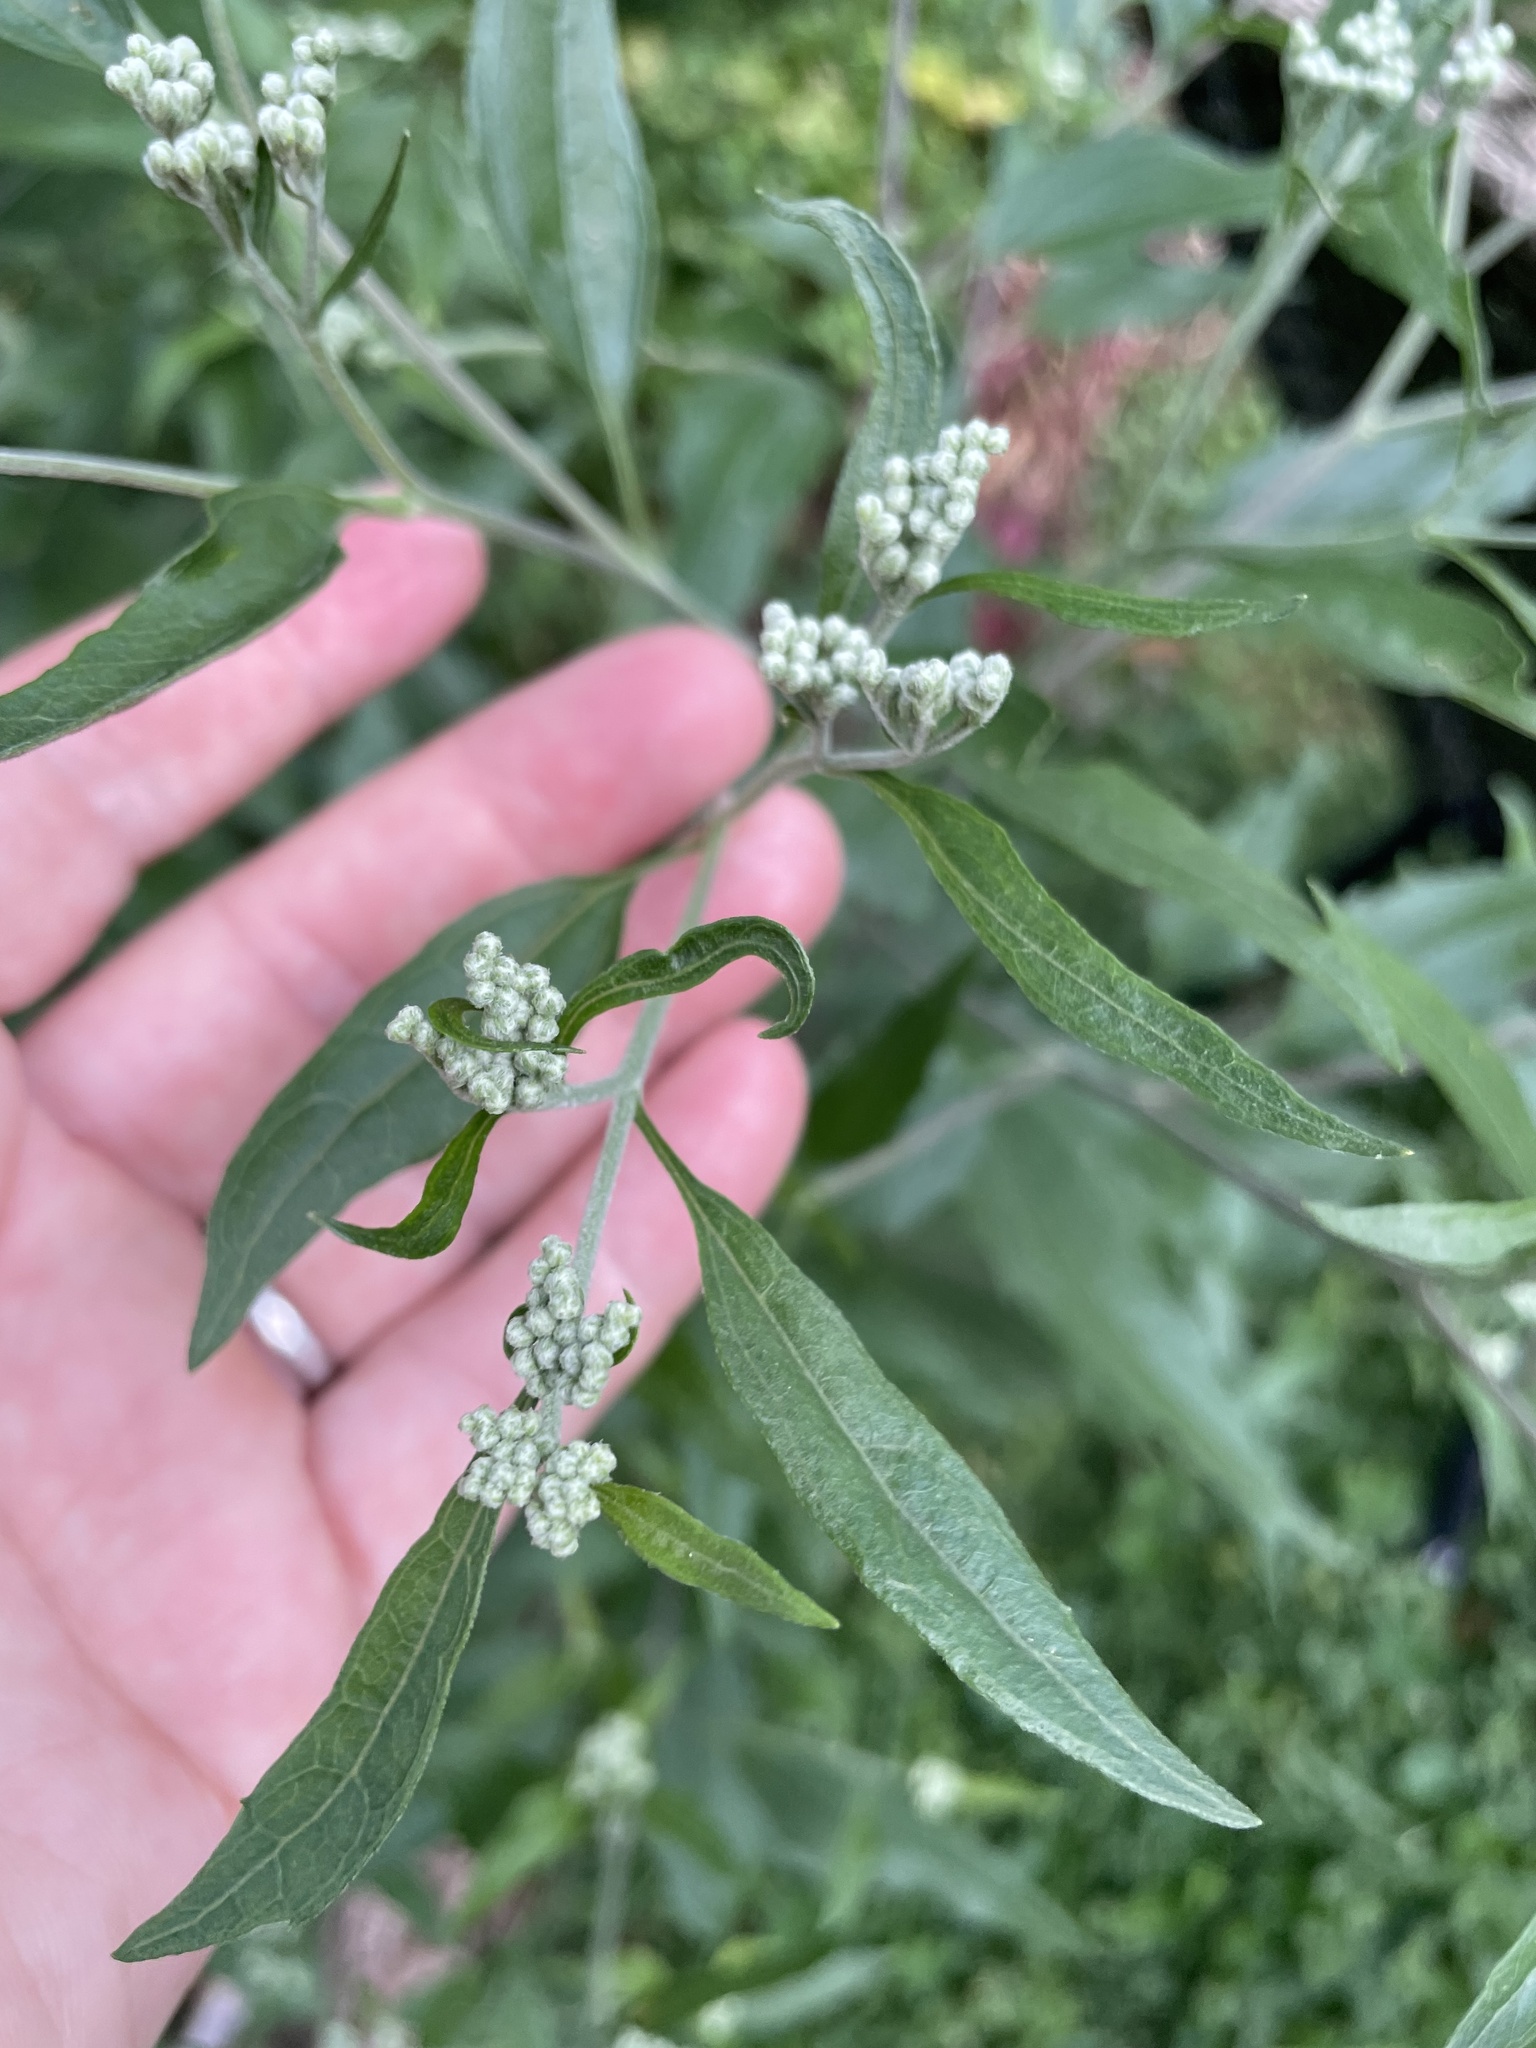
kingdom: Plantae
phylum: Tracheophyta
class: Magnoliopsida
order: Asterales
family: Asteraceae
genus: Eupatorium
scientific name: Eupatorium serotinum
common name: Late boneset
